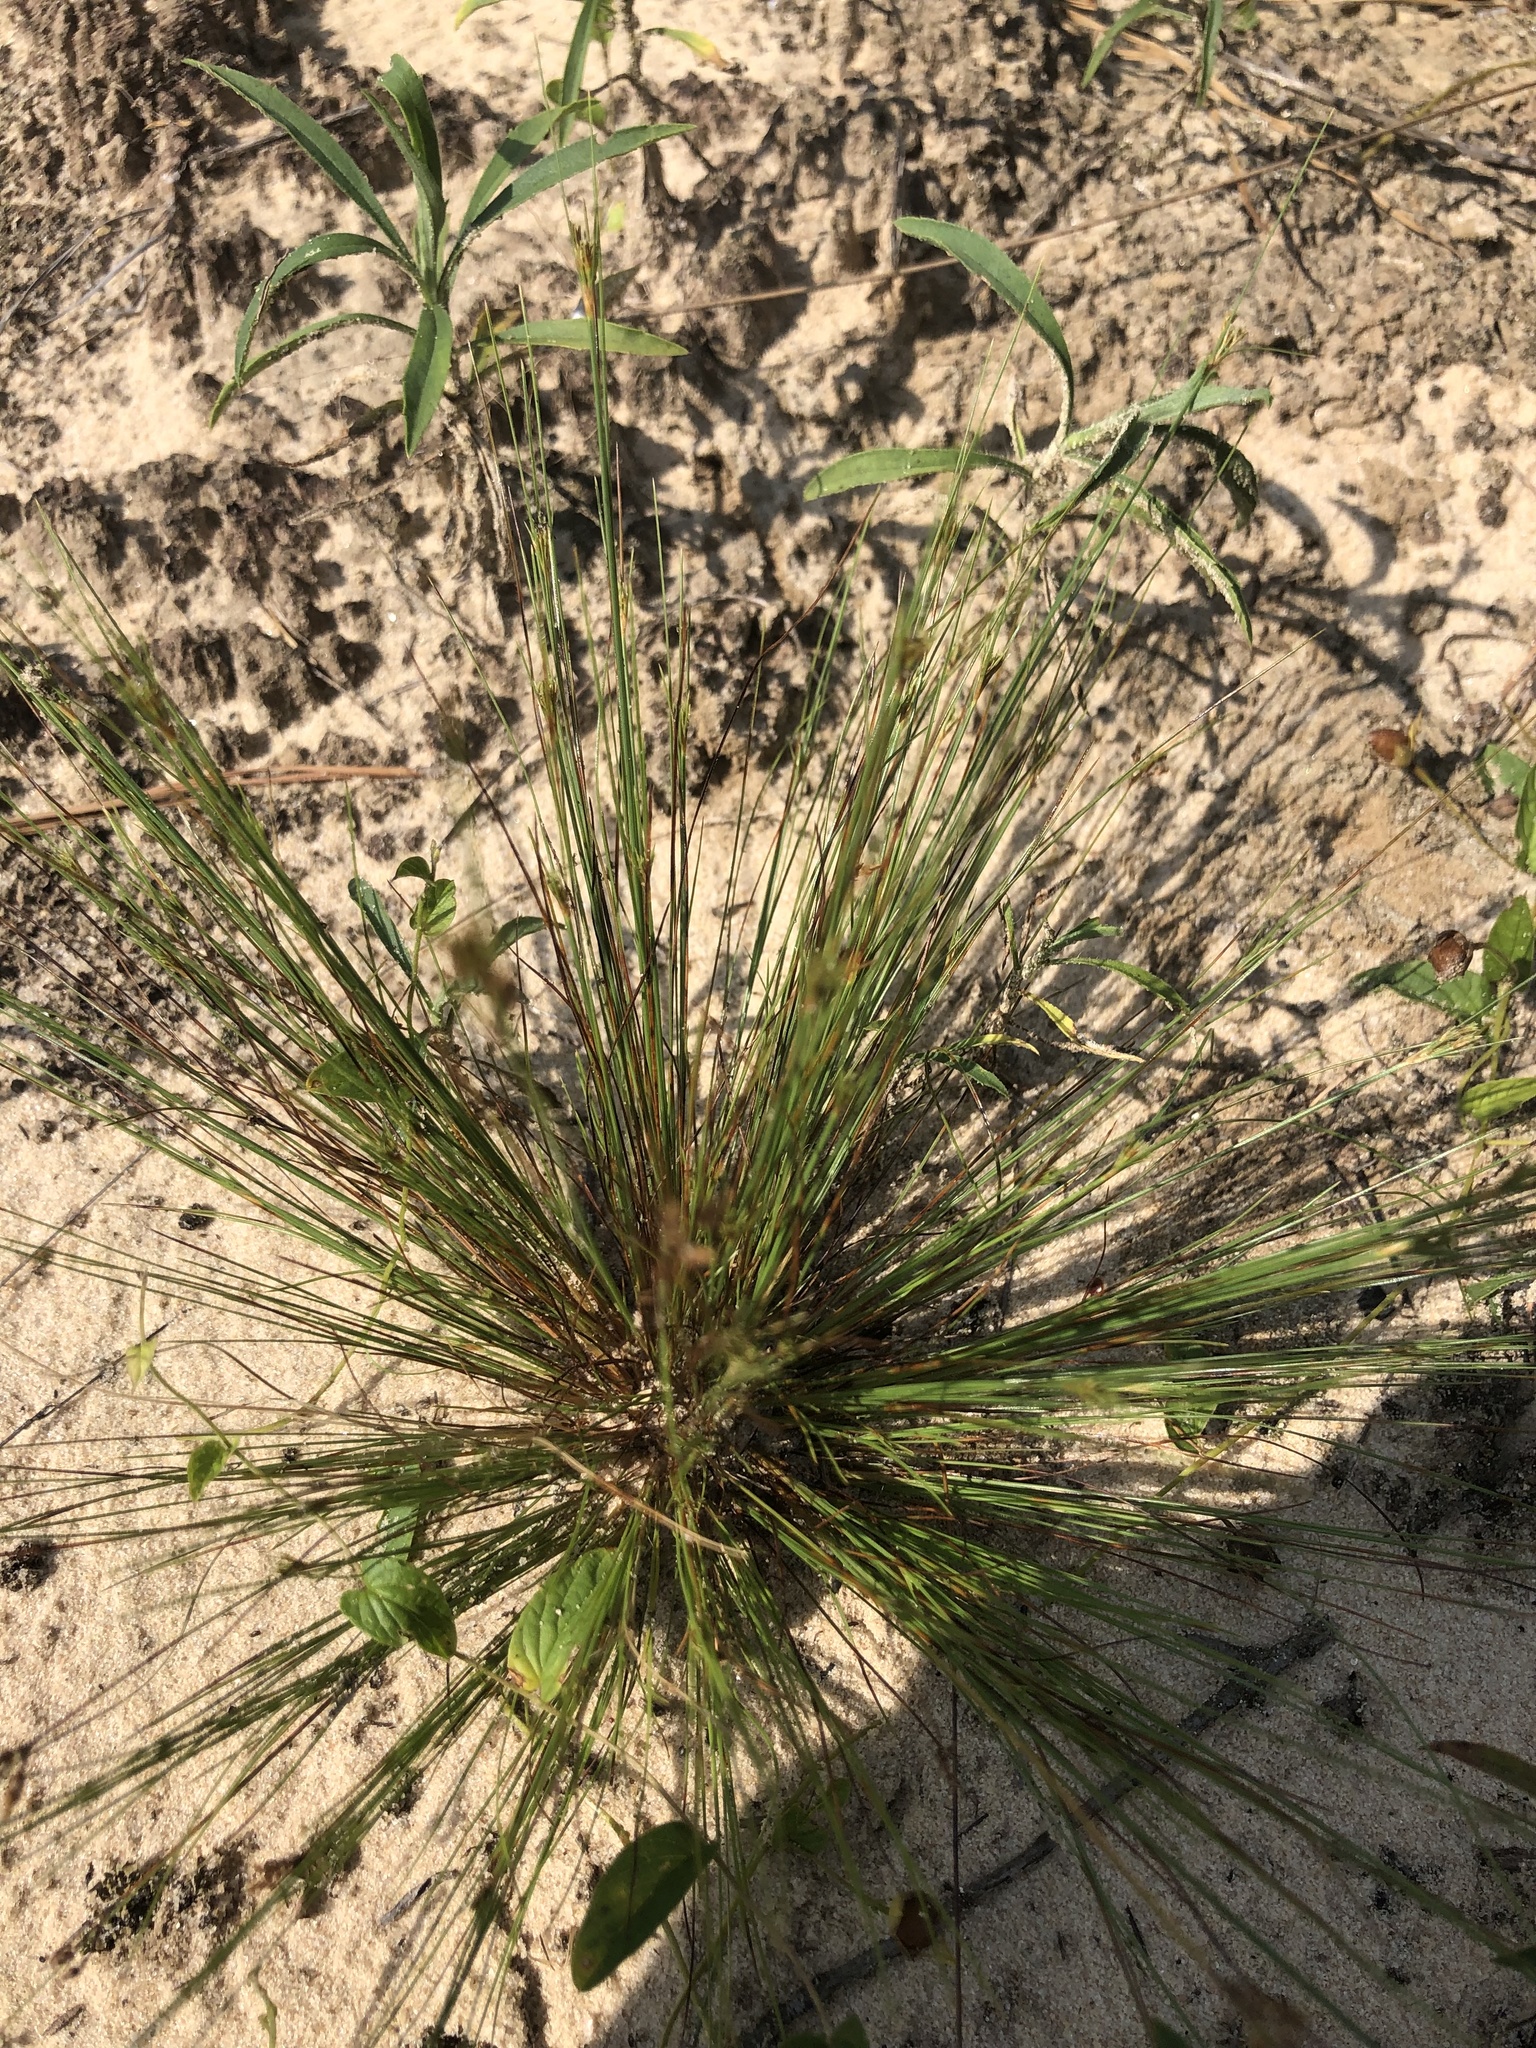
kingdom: Plantae
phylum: Tracheophyta
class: Liliopsida
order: Poales
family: Cyperaceae
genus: Bulbostylis
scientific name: Bulbostylis ciliatifolia
